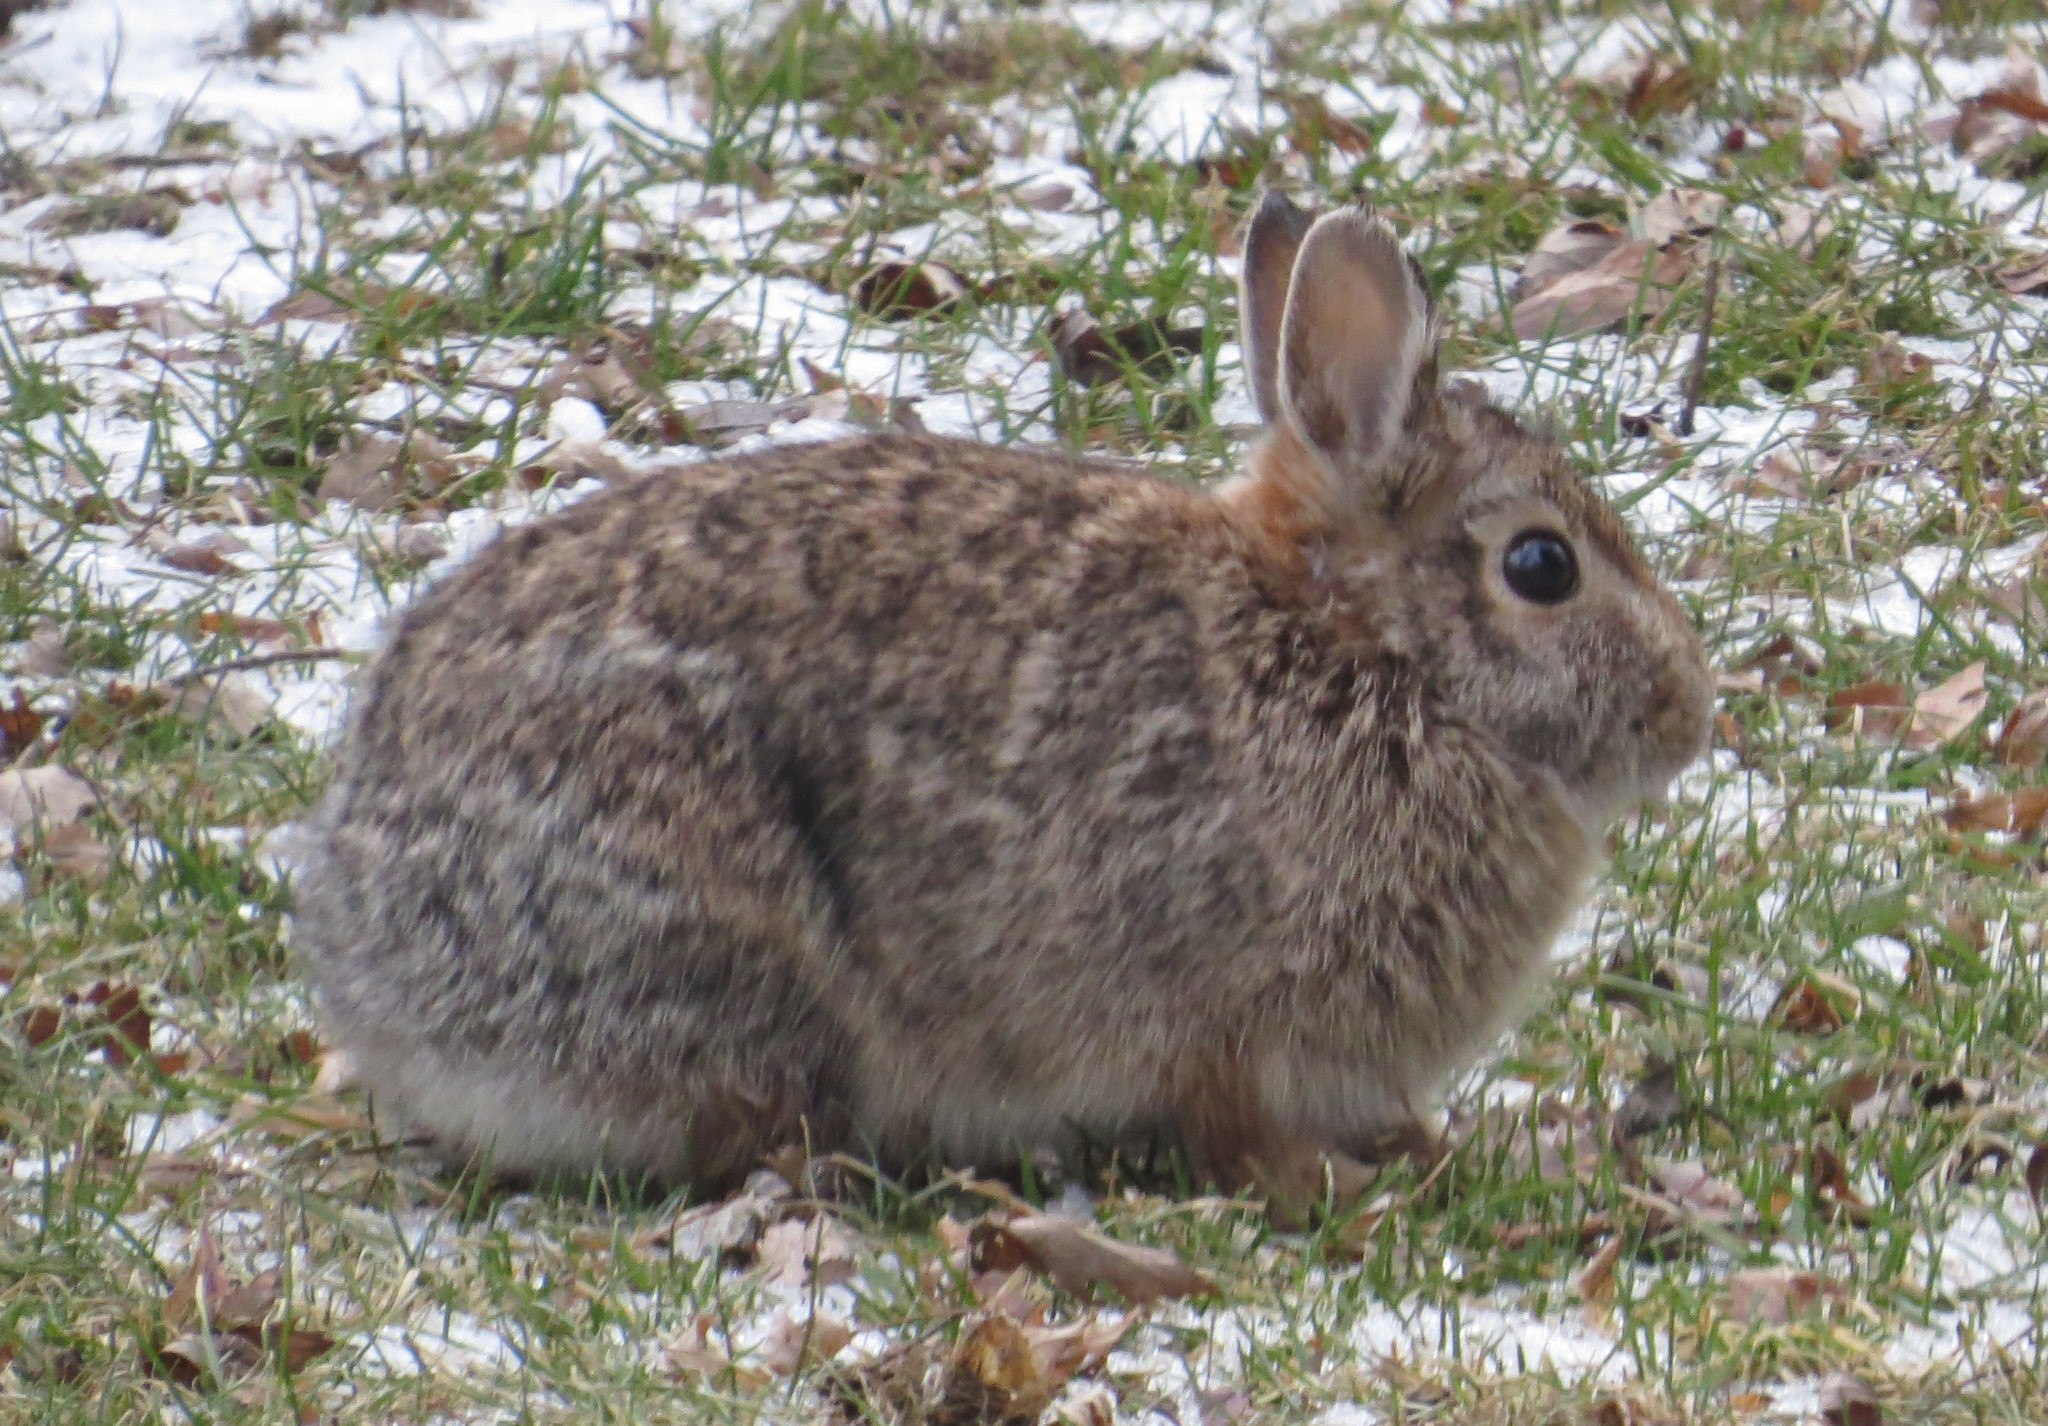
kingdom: Animalia
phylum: Chordata
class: Mammalia
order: Lagomorpha
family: Leporidae
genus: Sylvilagus
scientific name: Sylvilagus floridanus
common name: Eastern cottontail
